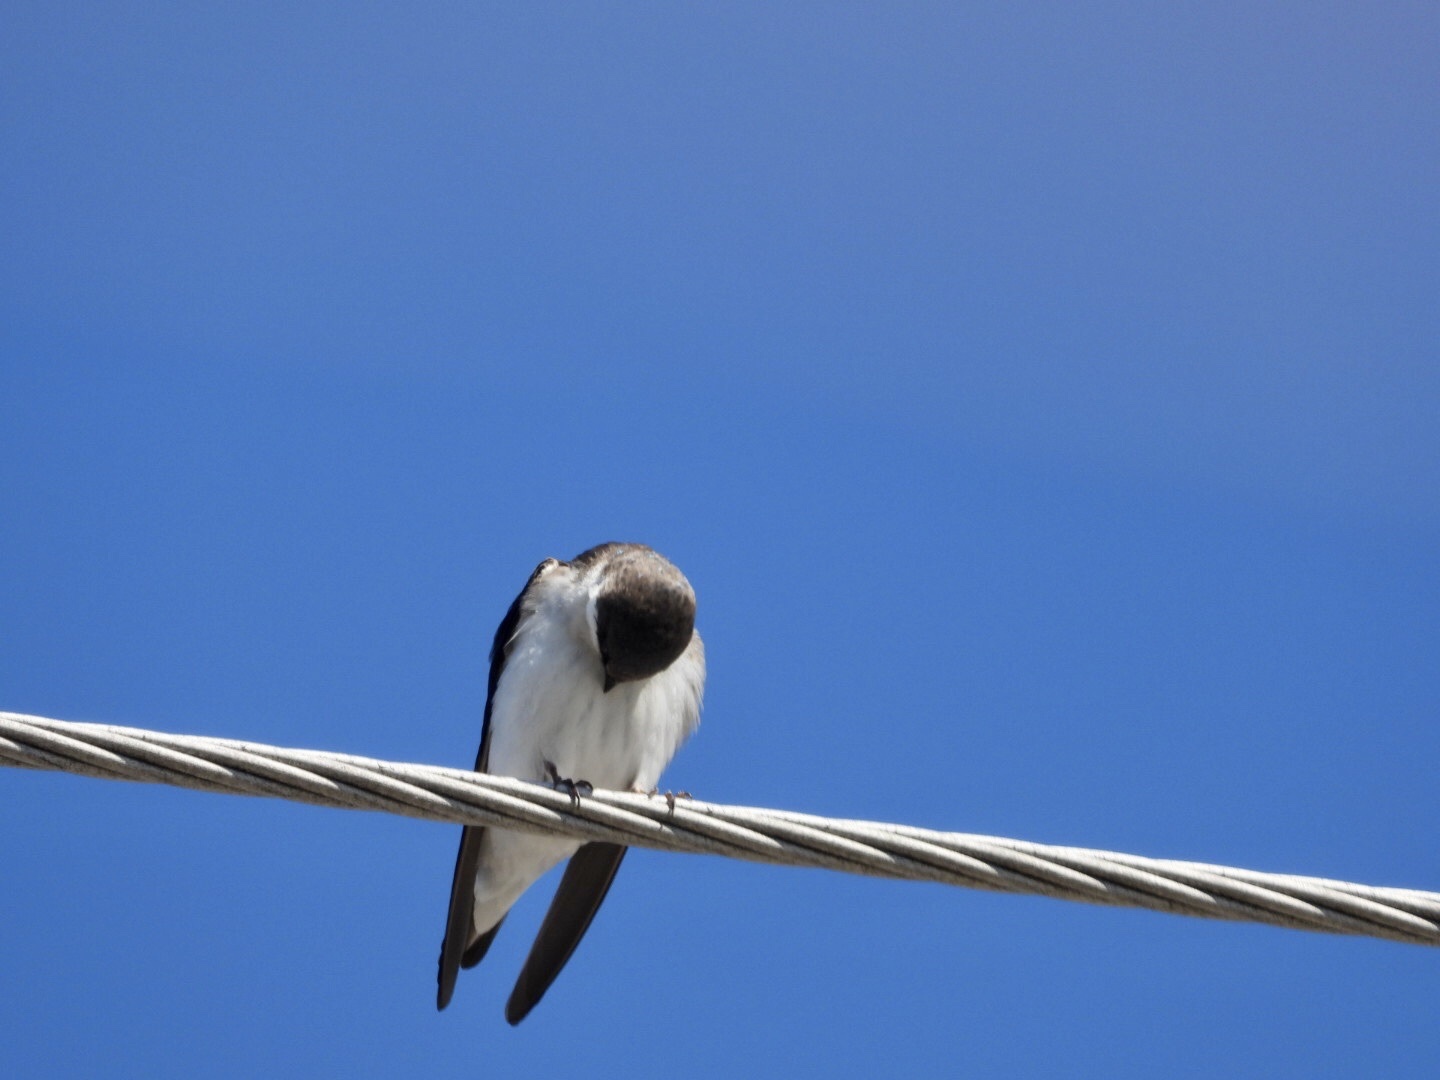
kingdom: Animalia
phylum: Chordata
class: Aves
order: Passeriformes
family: Hirundinidae
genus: Tachycineta
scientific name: Tachycineta bicolor
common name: Tree swallow
